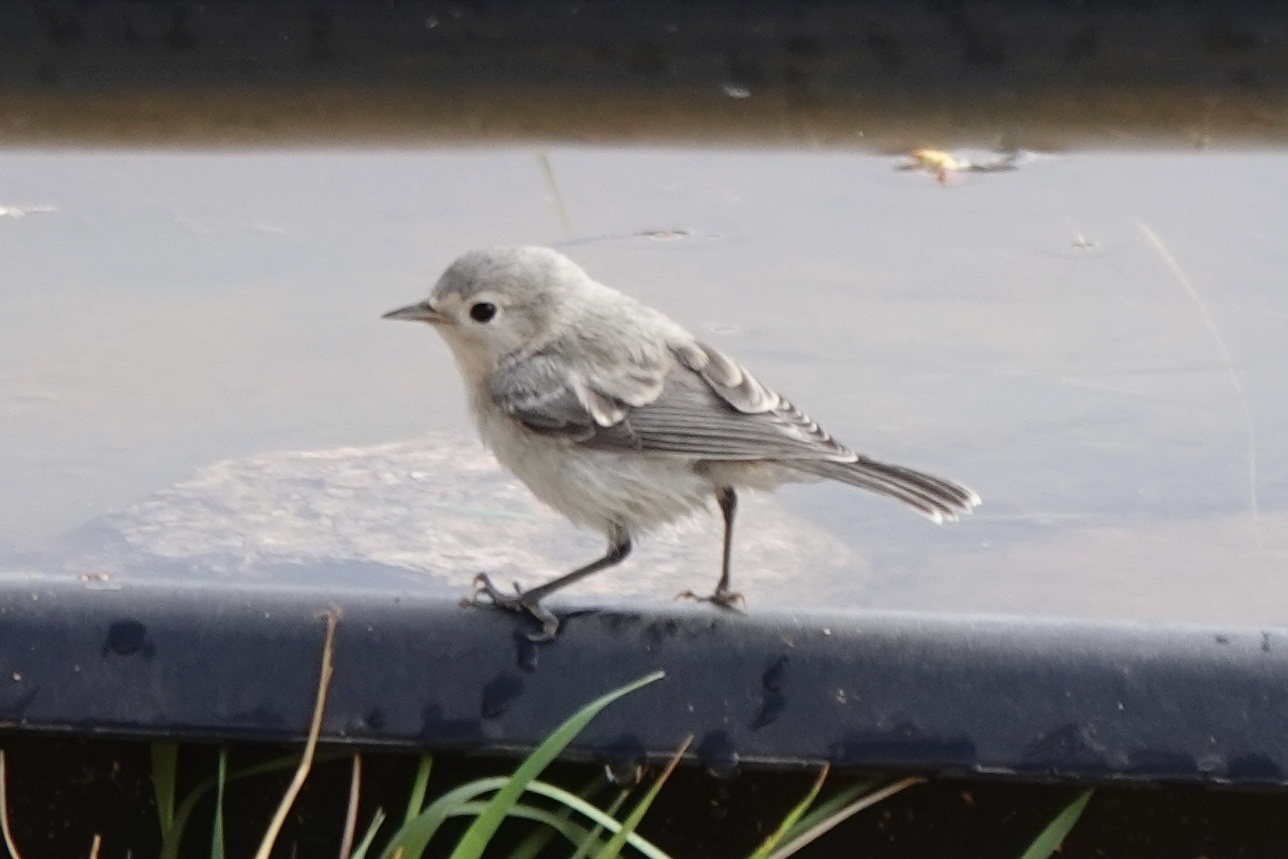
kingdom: Animalia
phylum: Chordata
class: Aves
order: Passeriformes
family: Parulidae
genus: Leiothlypis
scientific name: Leiothlypis luciae
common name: Lucy's warbler
